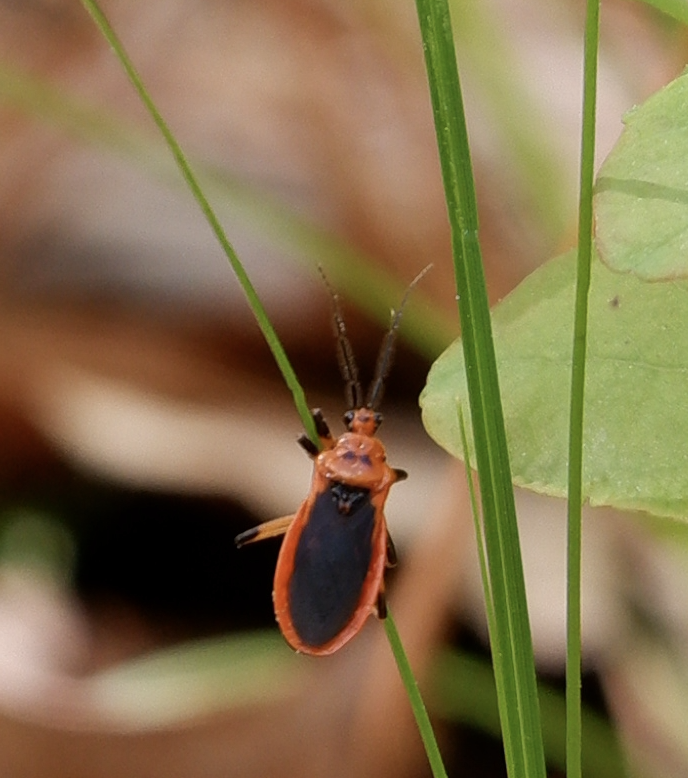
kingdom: Animalia
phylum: Arthropoda
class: Insecta
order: Hemiptera
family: Reduviidae
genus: Rhiginia
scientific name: Rhiginia cruciata
